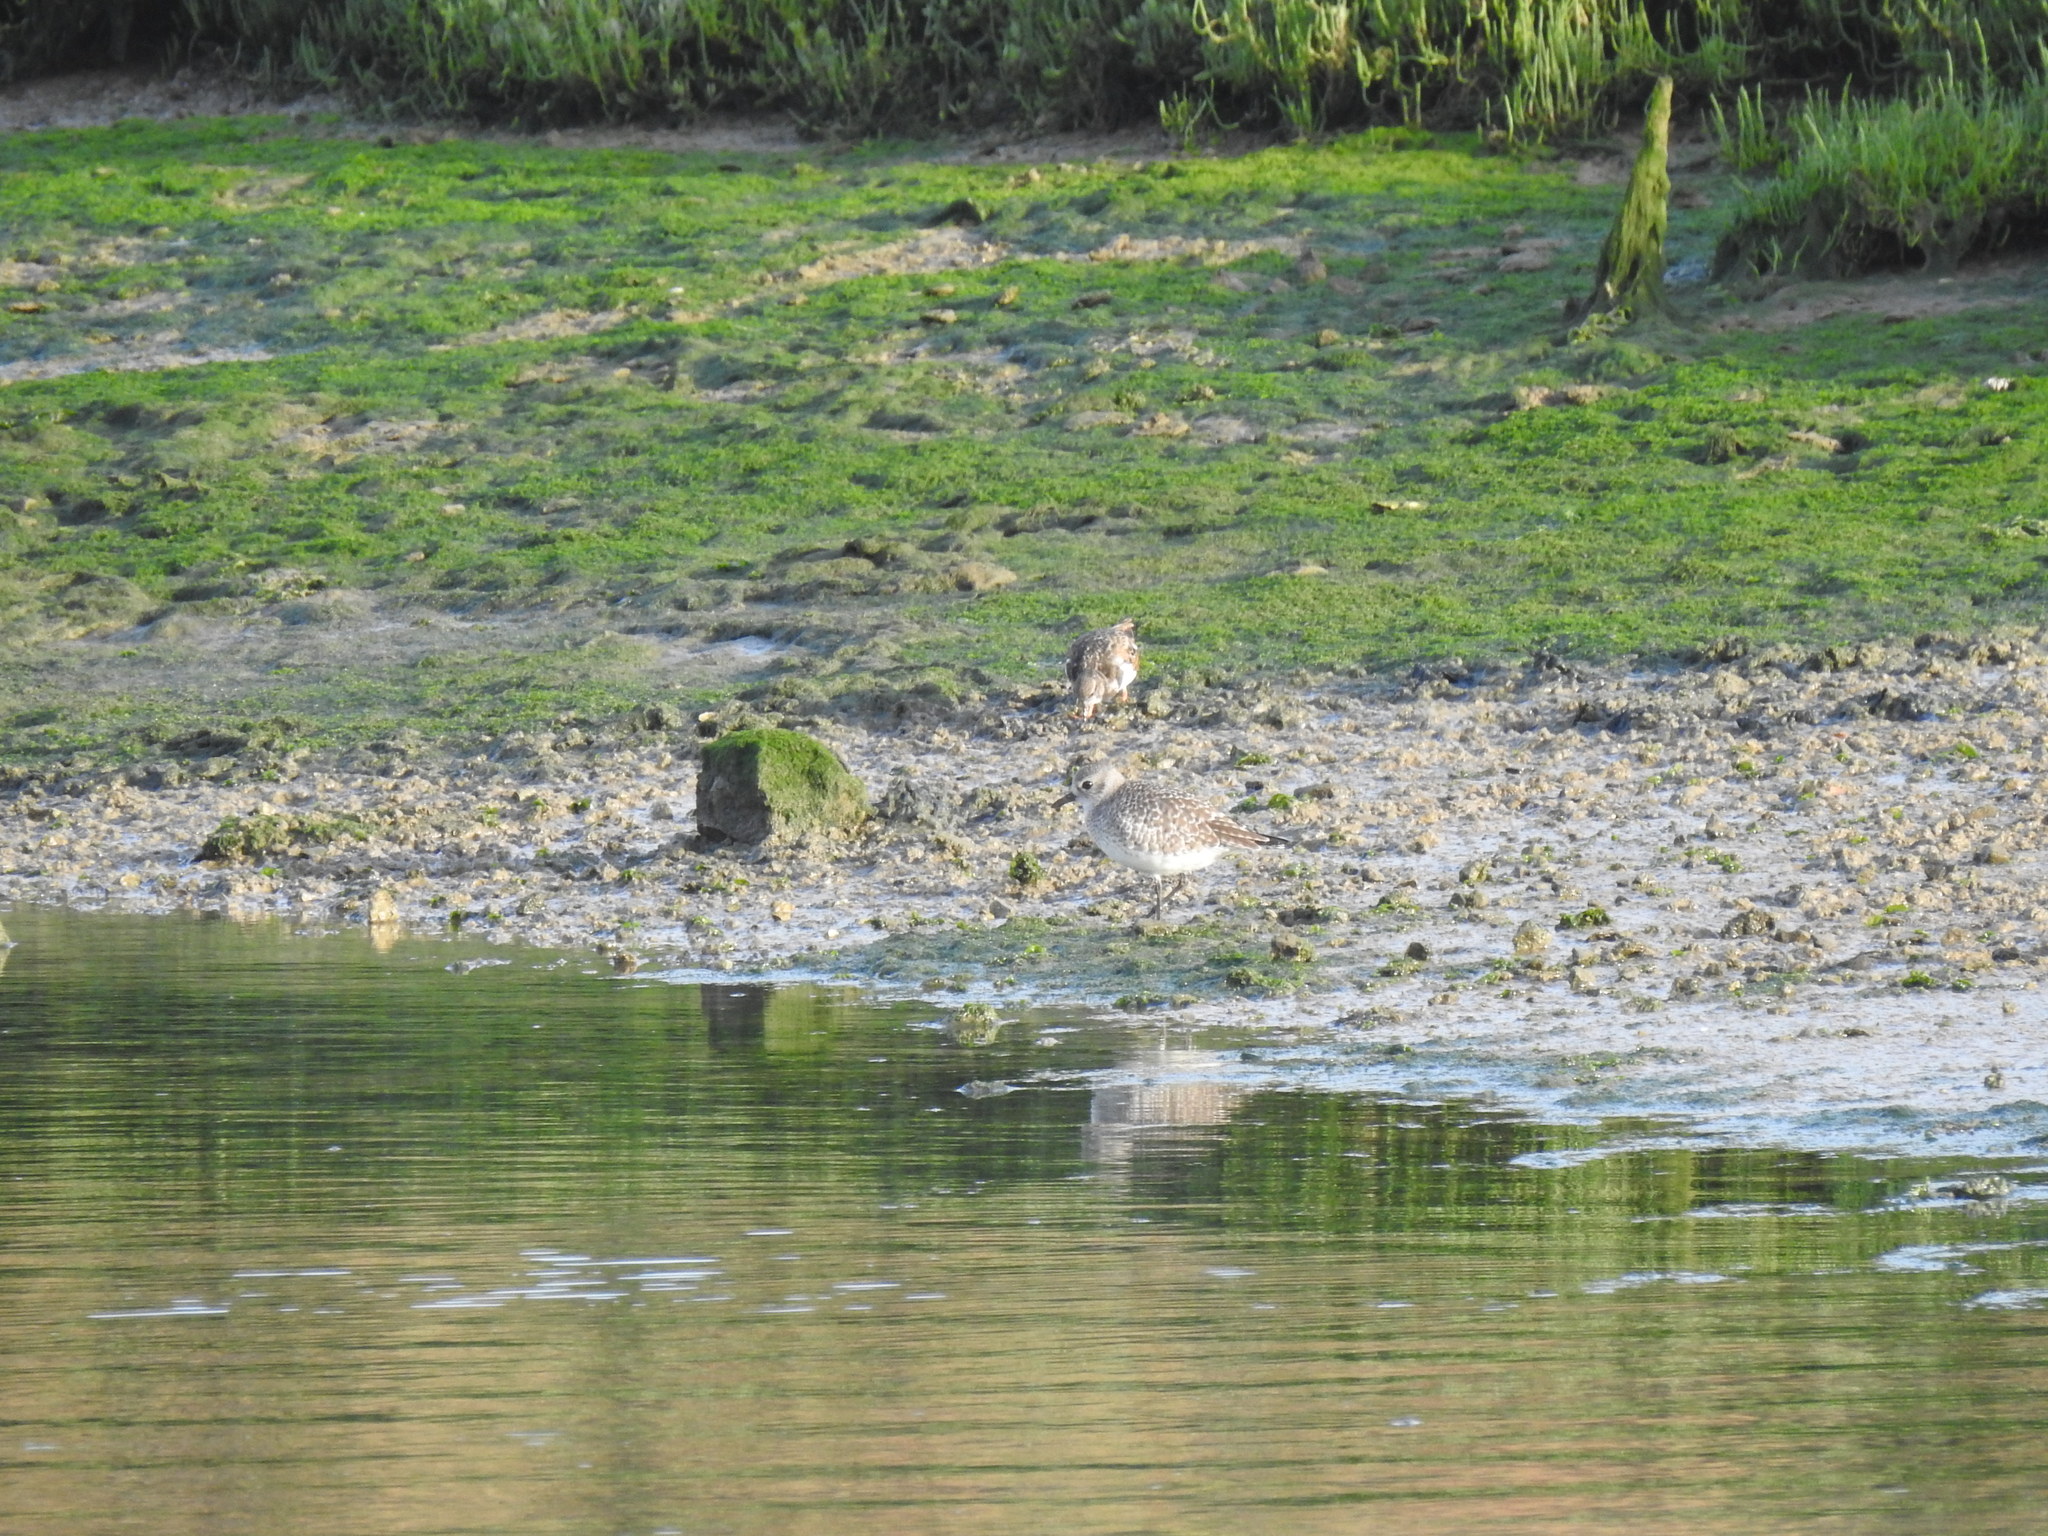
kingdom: Animalia
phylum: Chordata
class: Aves
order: Charadriiformes
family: Charadriidae
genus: Pluvialis
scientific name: Pluvialis squatarola
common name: Grey plover
